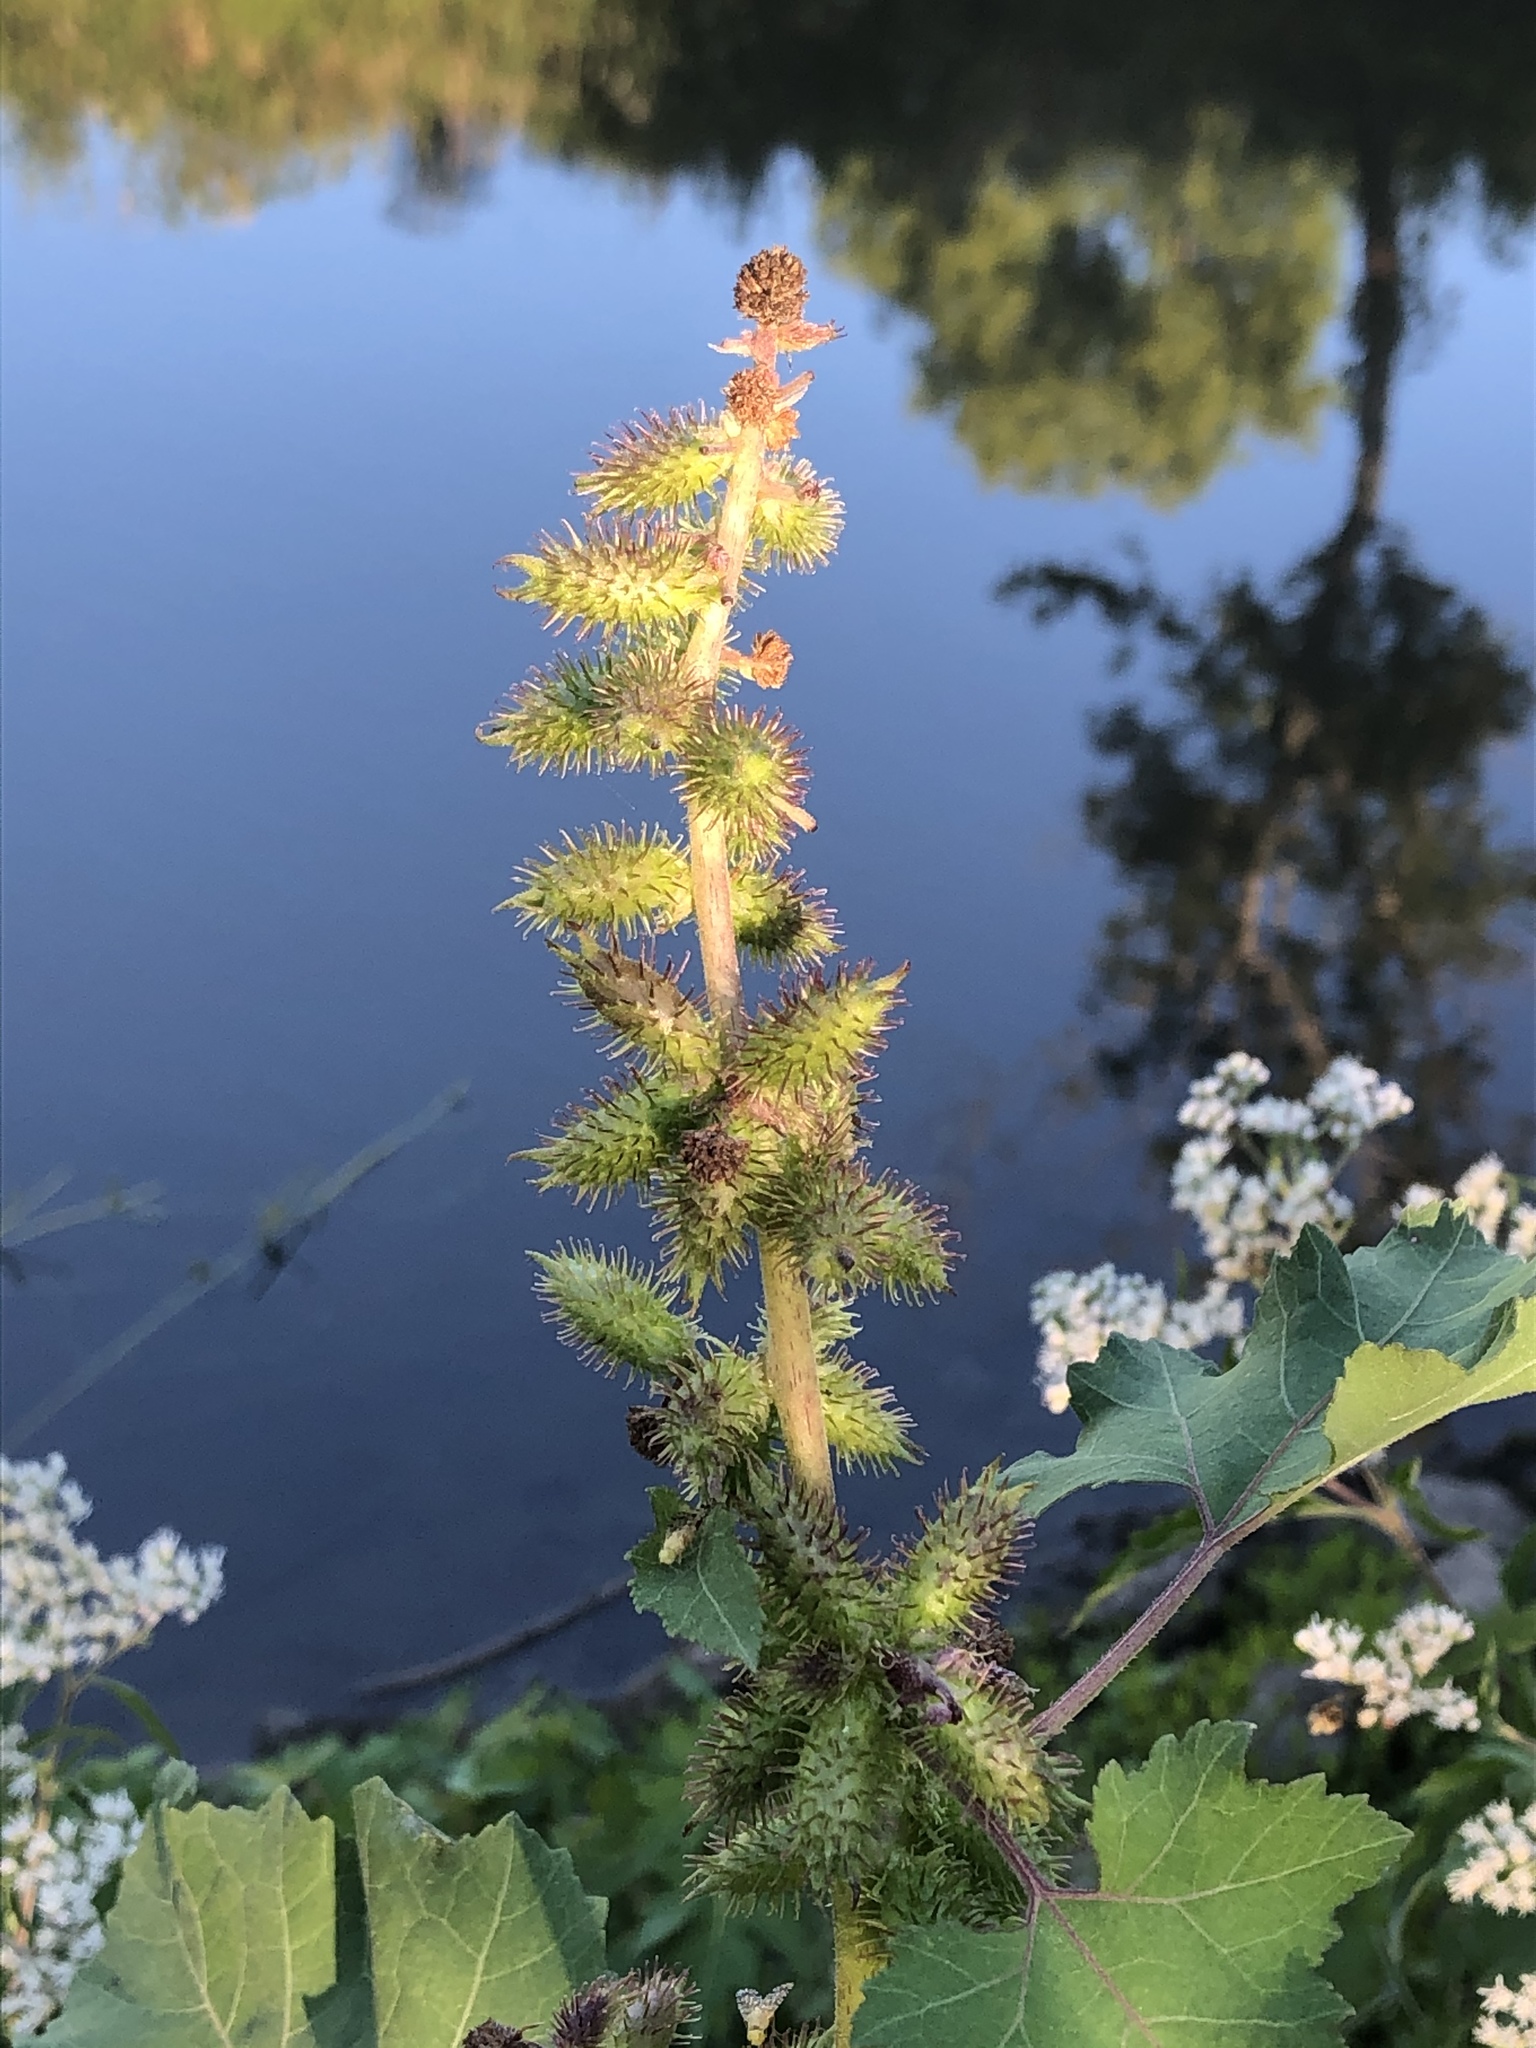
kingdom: Plantae
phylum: Tracheophyta
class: Magnoliopsida
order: Asterales
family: Asteraceae
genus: Xanthium
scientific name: Xanthium strumarium
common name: Rough cocklebur
